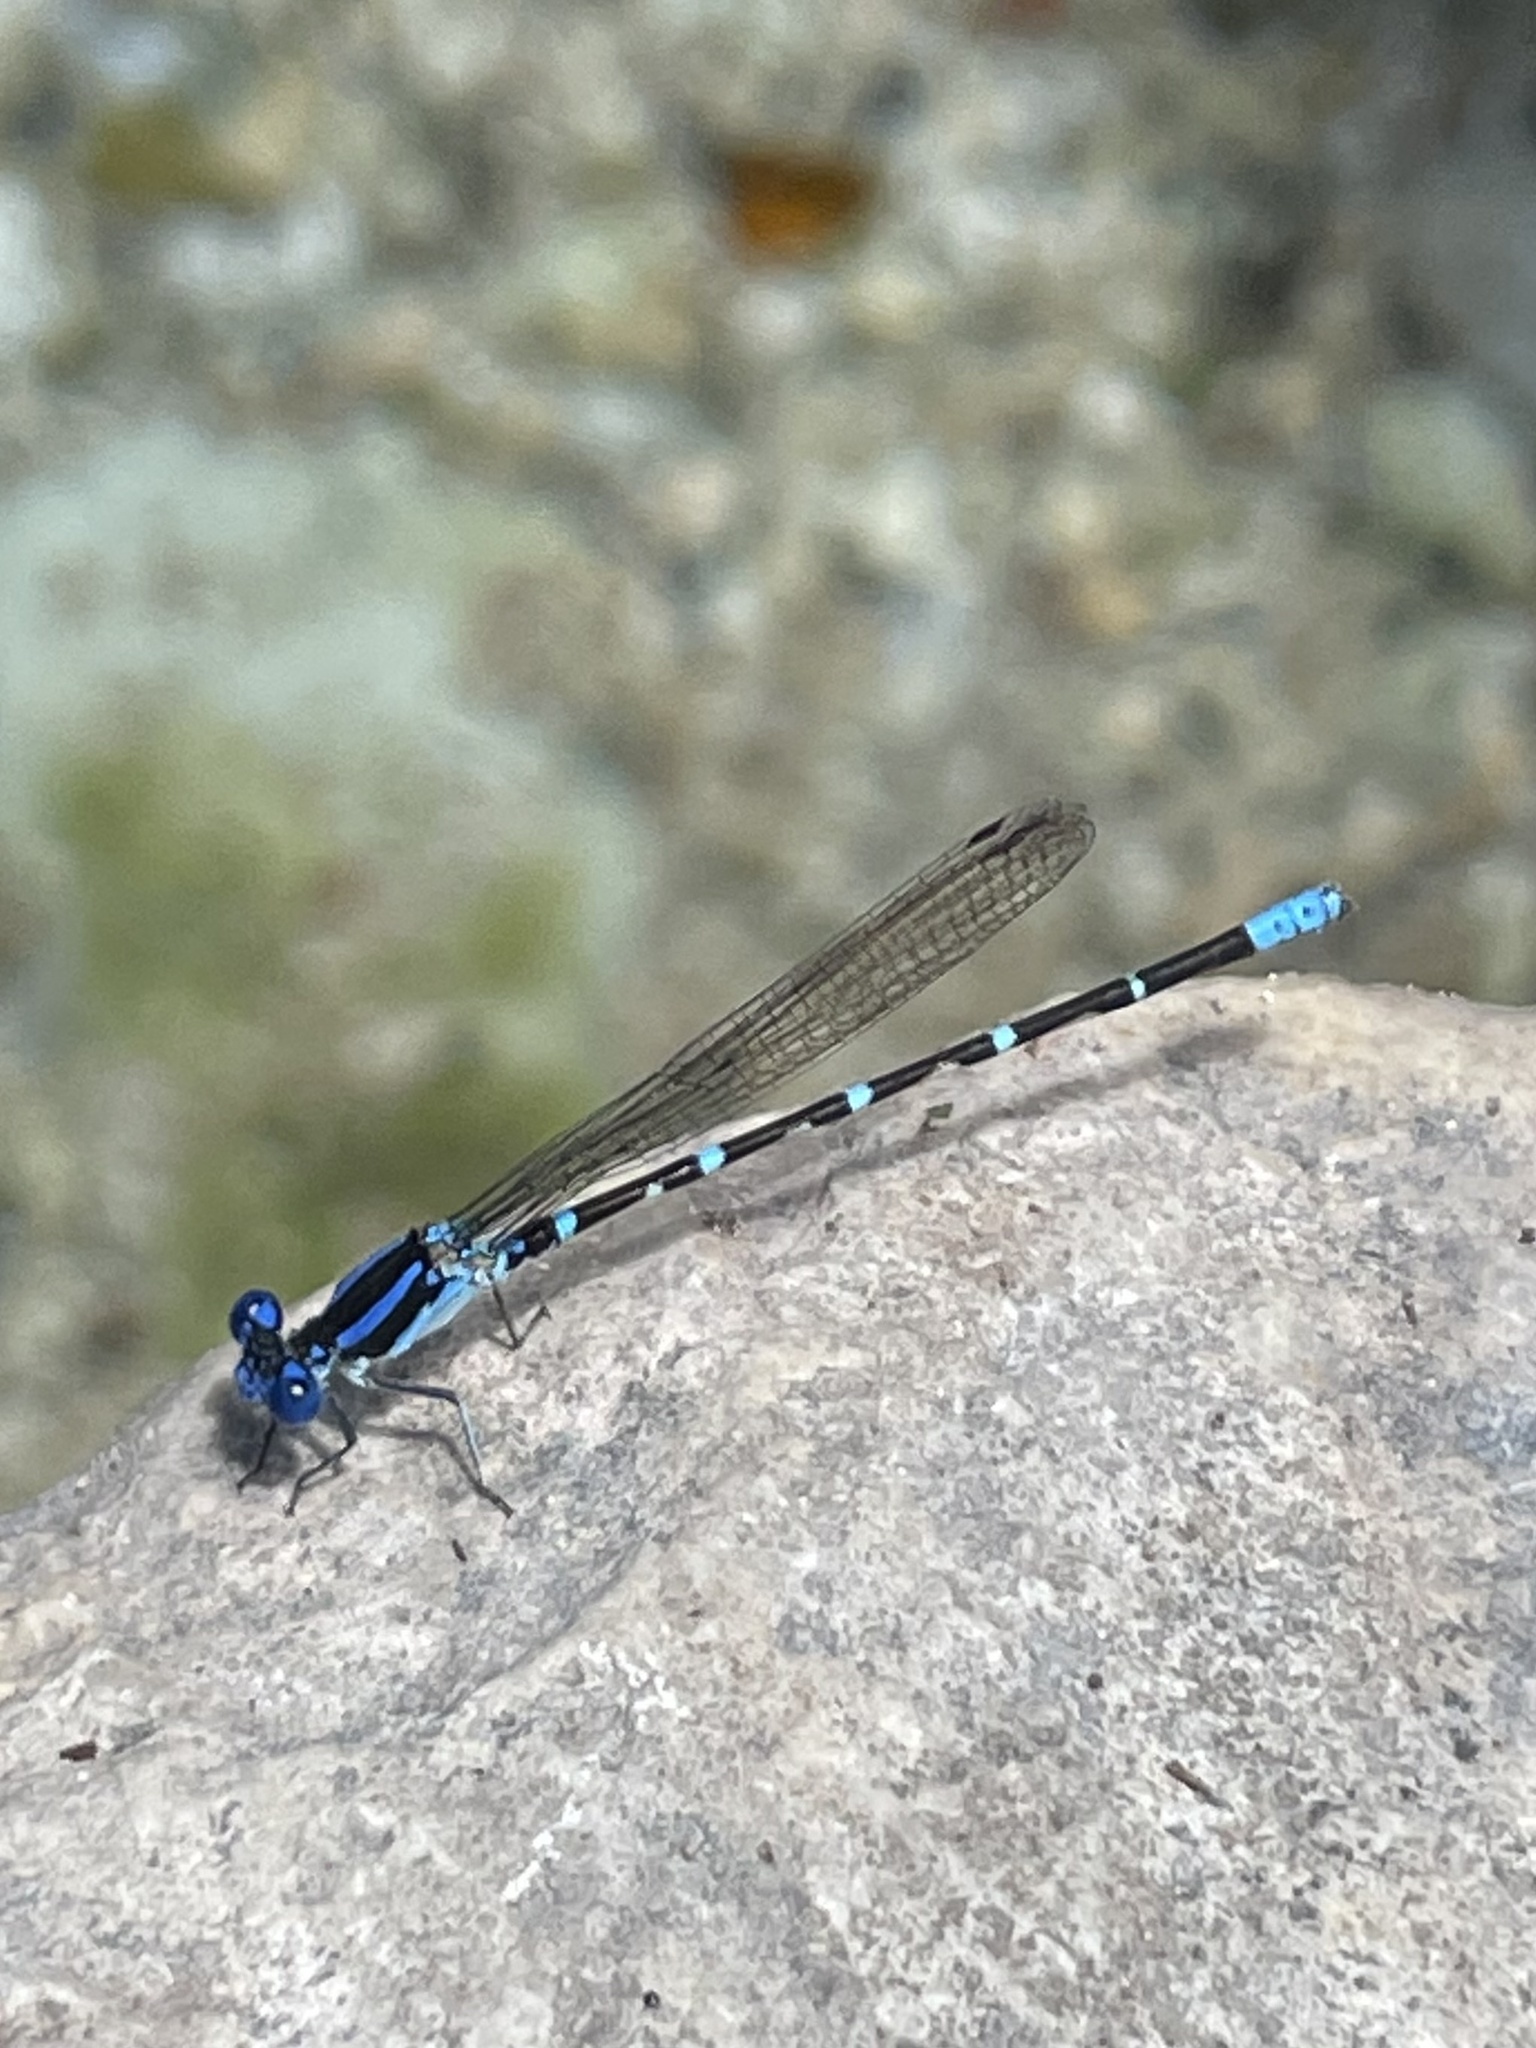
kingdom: Animalia
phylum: Arthropoda
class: Insecta
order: Odonata
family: Coenagrionidae
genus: Argia
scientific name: Argia sedula
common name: Blue-ringed dancer
